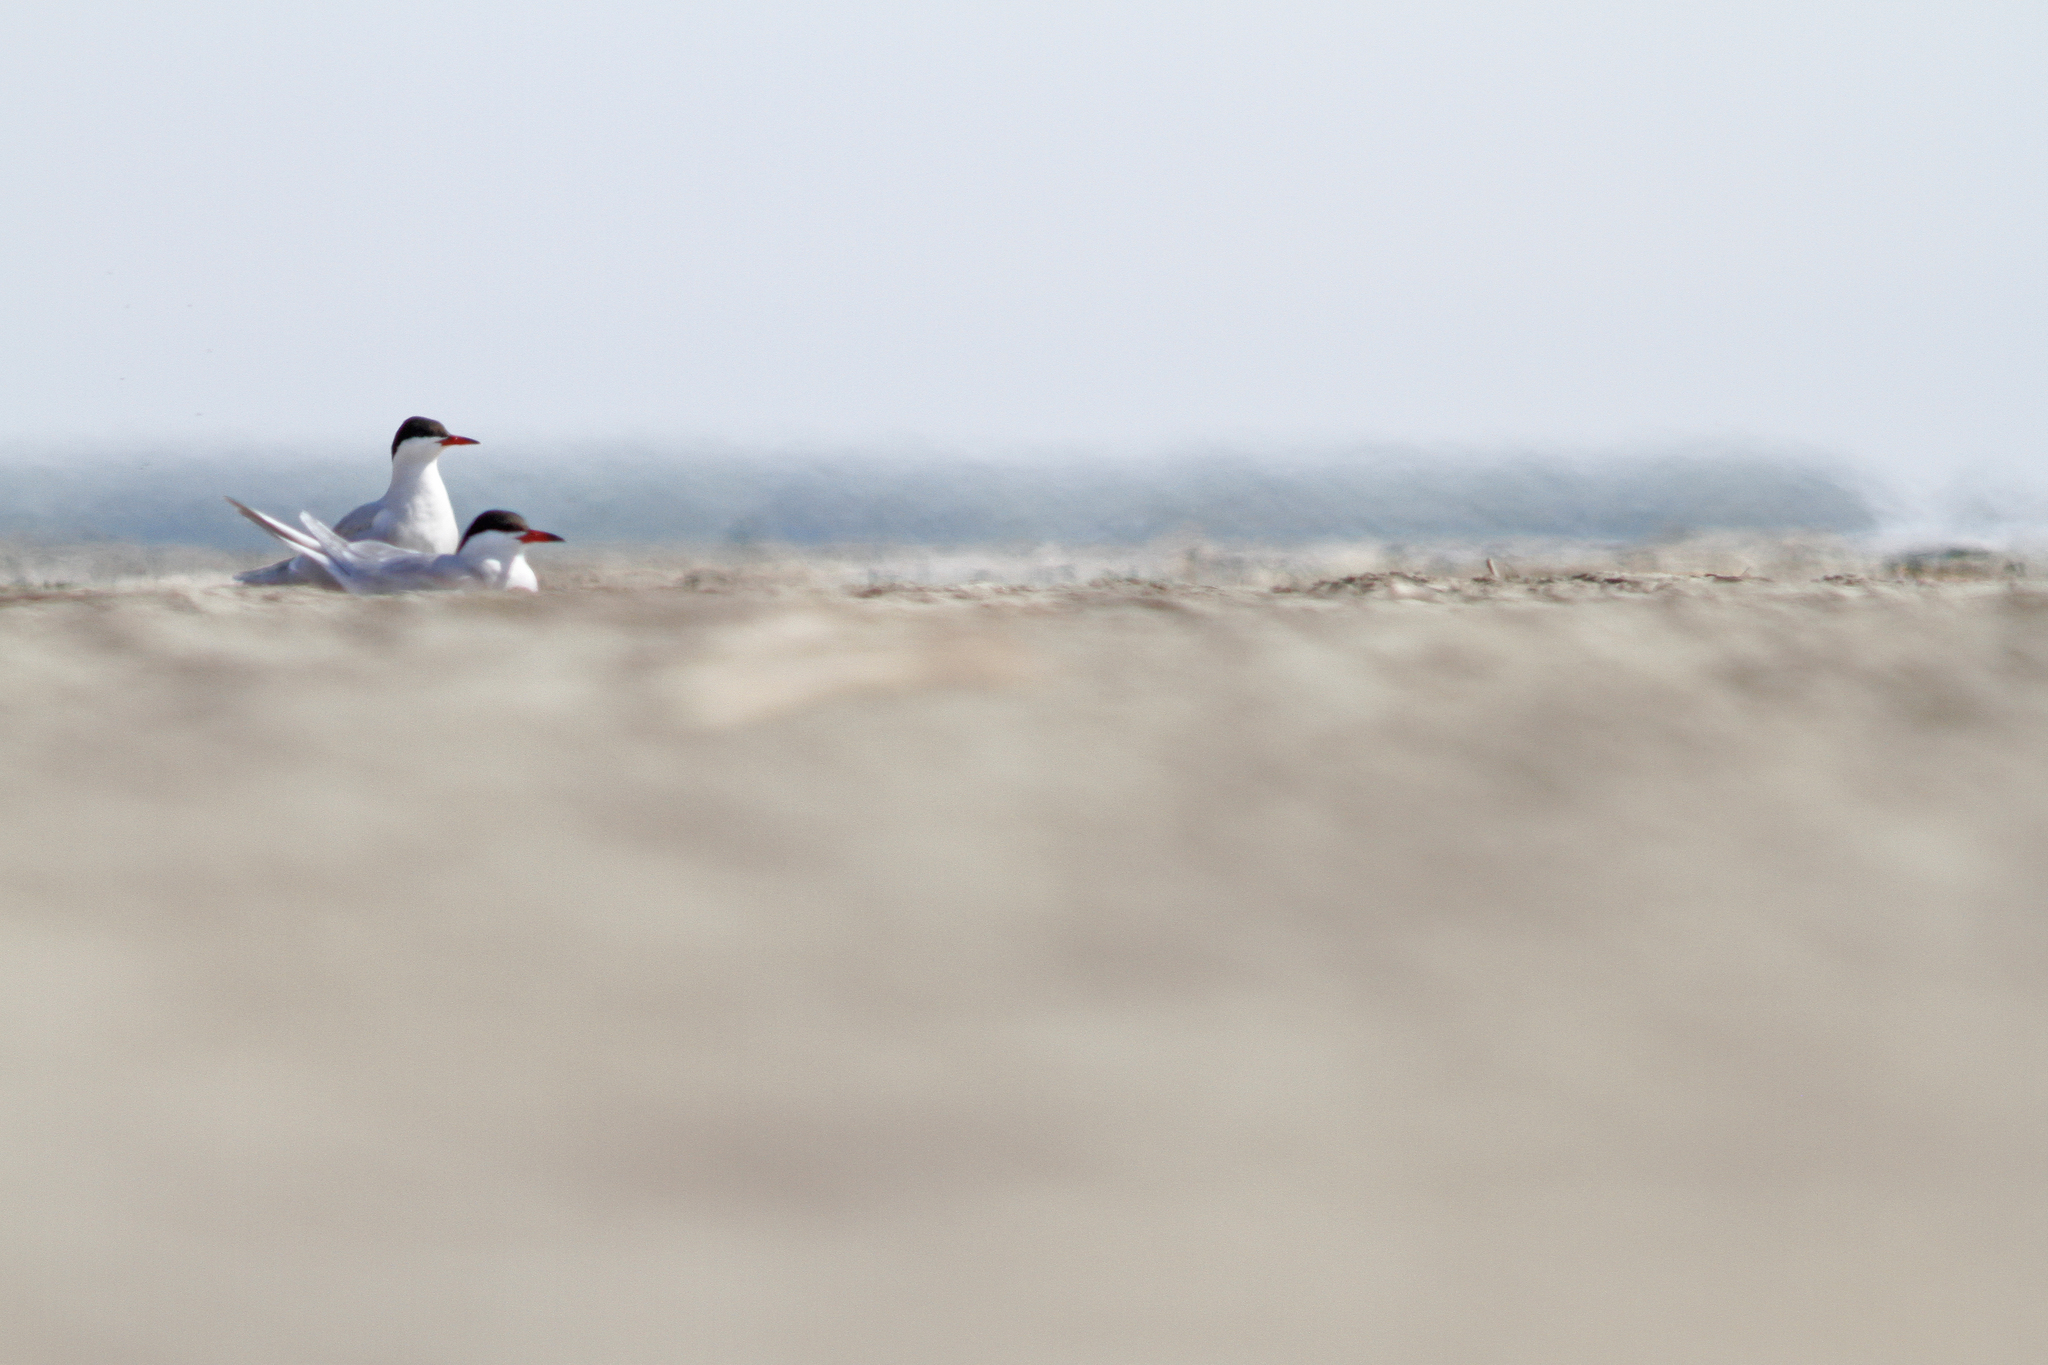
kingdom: Animalia
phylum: Chordata
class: Aves
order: Charadriiformes
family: Laridae
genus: Sterna
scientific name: Sterna hirundo
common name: Common tern
